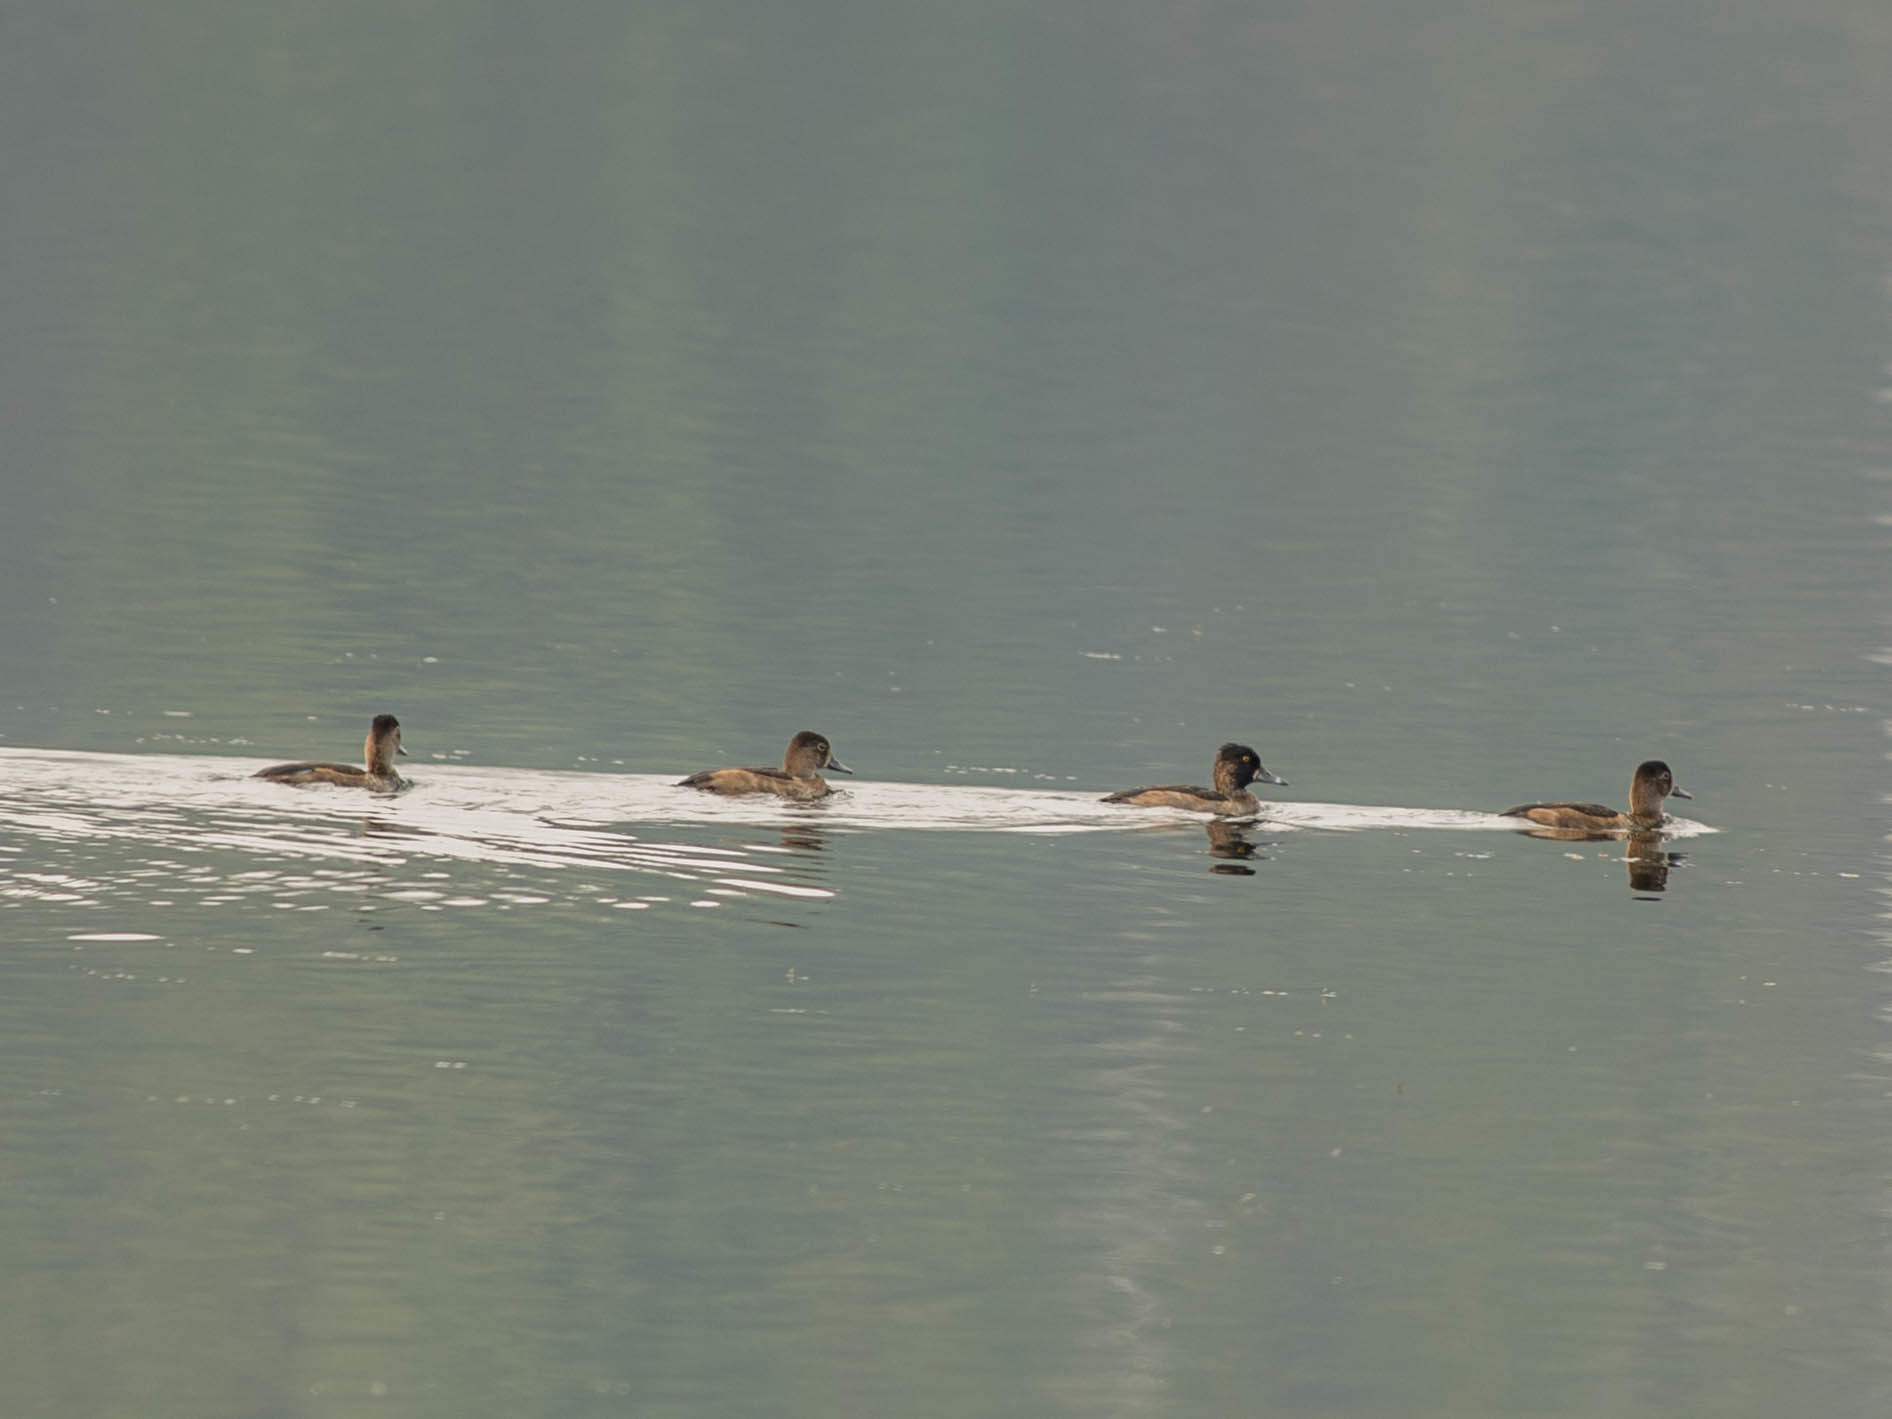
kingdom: Animalia
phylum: Chordata
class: Aves
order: Anseriformes
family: Anatidae
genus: Aythya
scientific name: Aythya collaris
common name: Ring-necked duck
